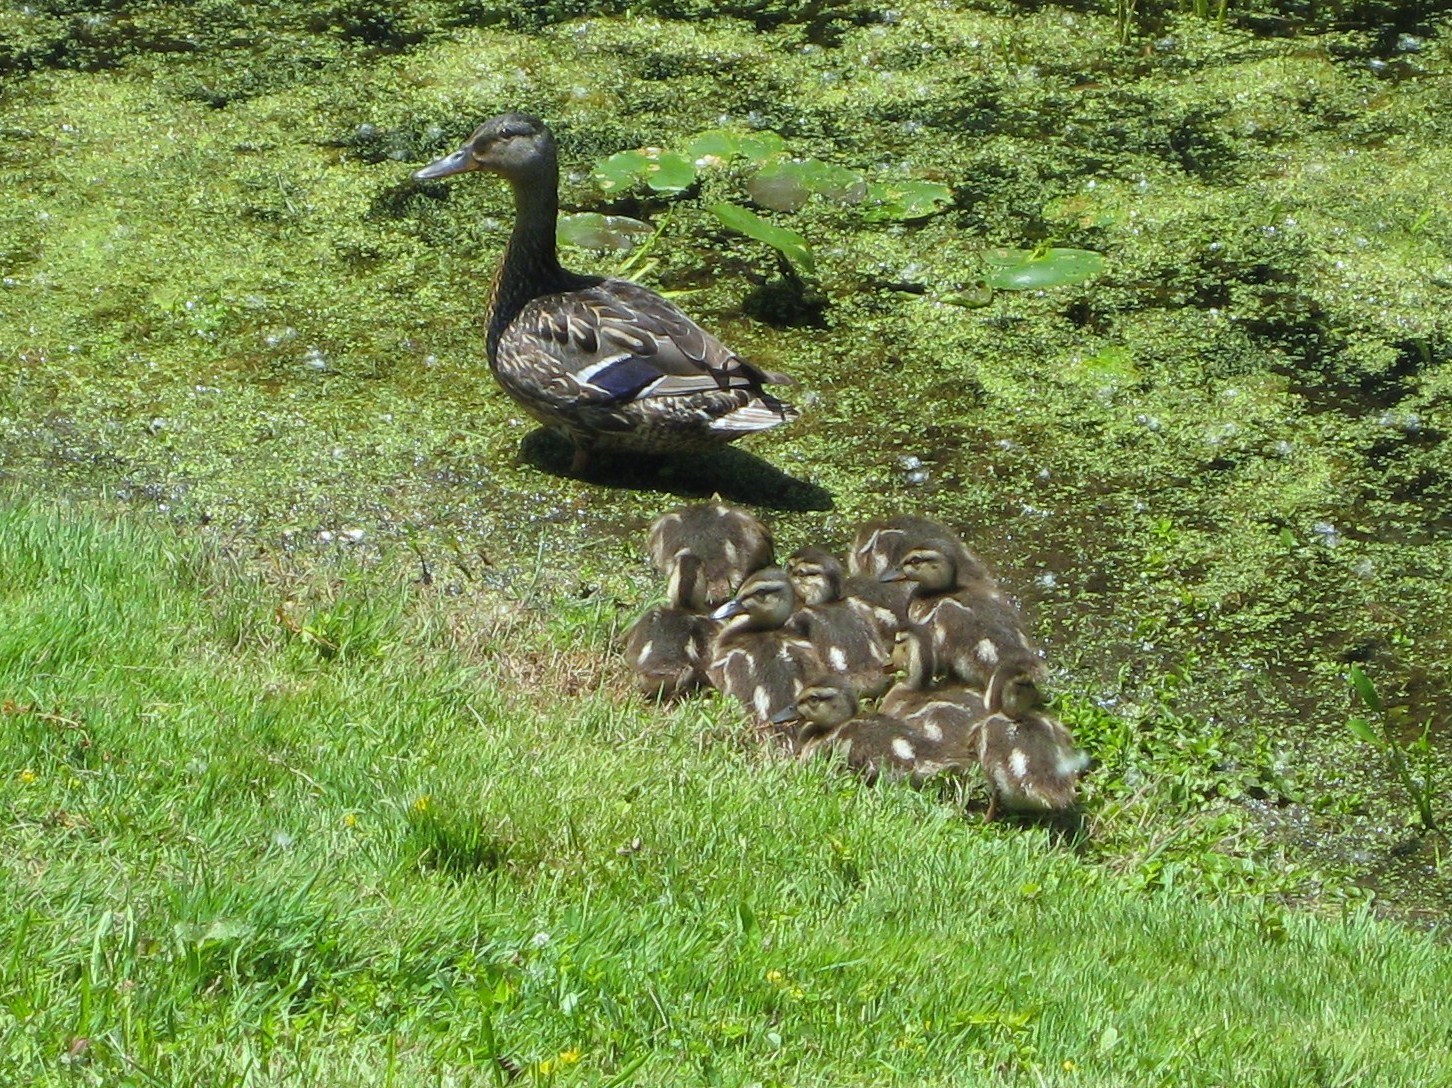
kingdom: Animalia
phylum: Chordata
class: Aves
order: Anseriformes
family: Anatidae
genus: Anas
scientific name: Anas platyrhynchos
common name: Mallard
